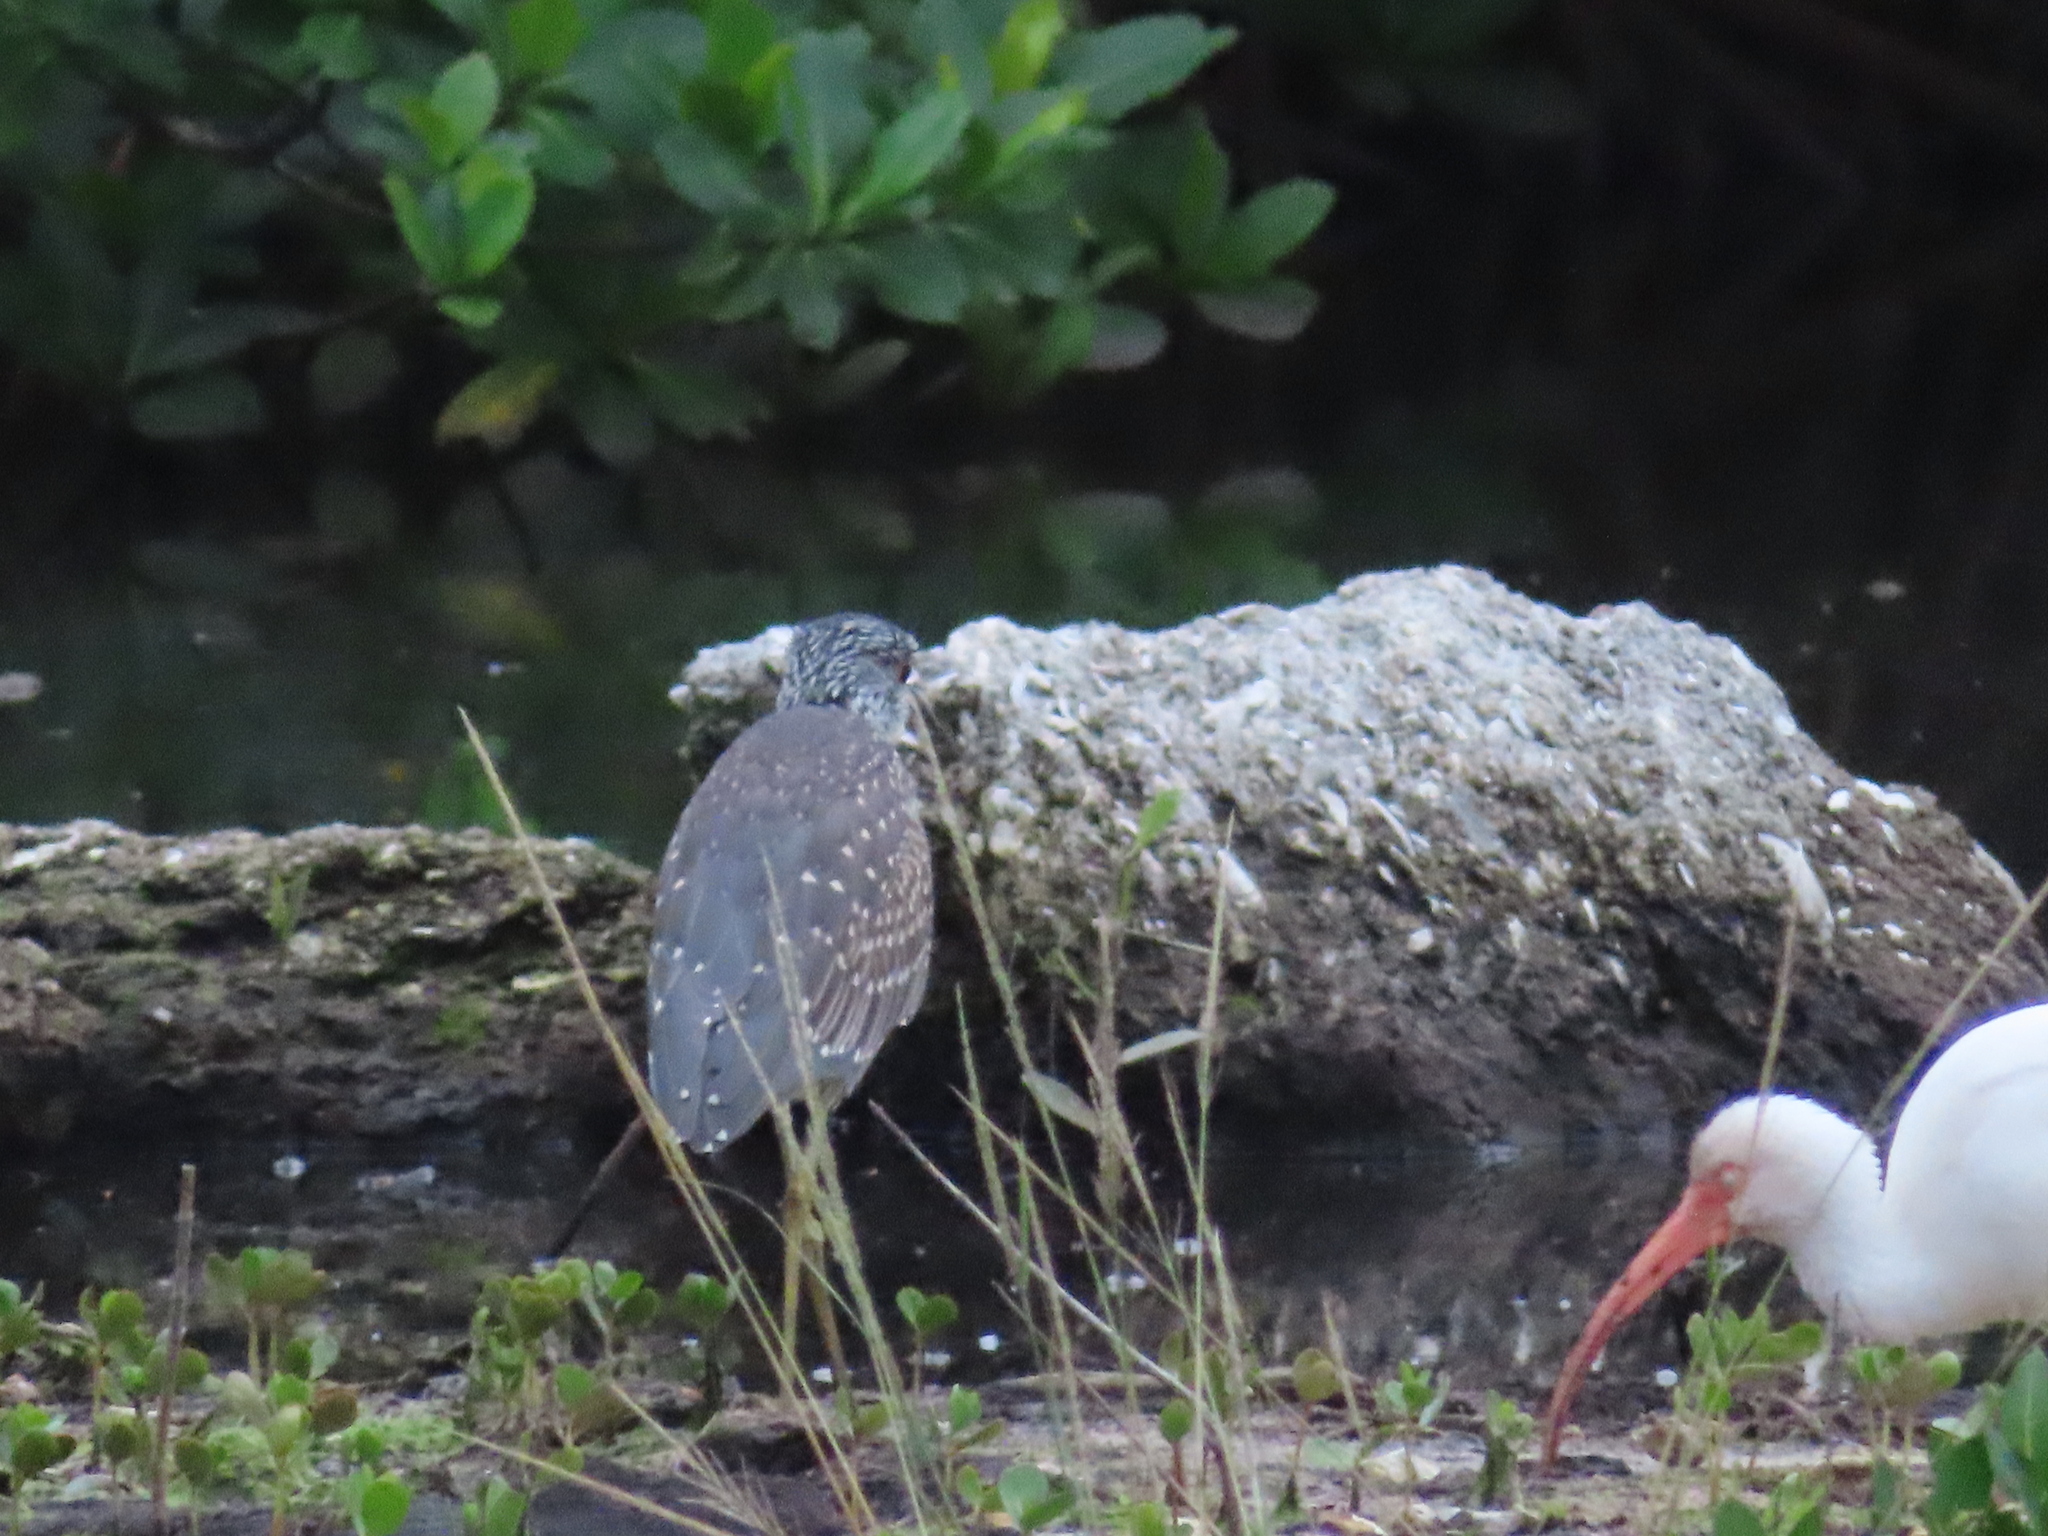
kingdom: Animalia
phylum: Chordata
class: Aves
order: Pelecaniformes
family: Ardeidae
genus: Nyctanassa
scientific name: Nyctanassa violacea
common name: Yellow-crowned night heron
